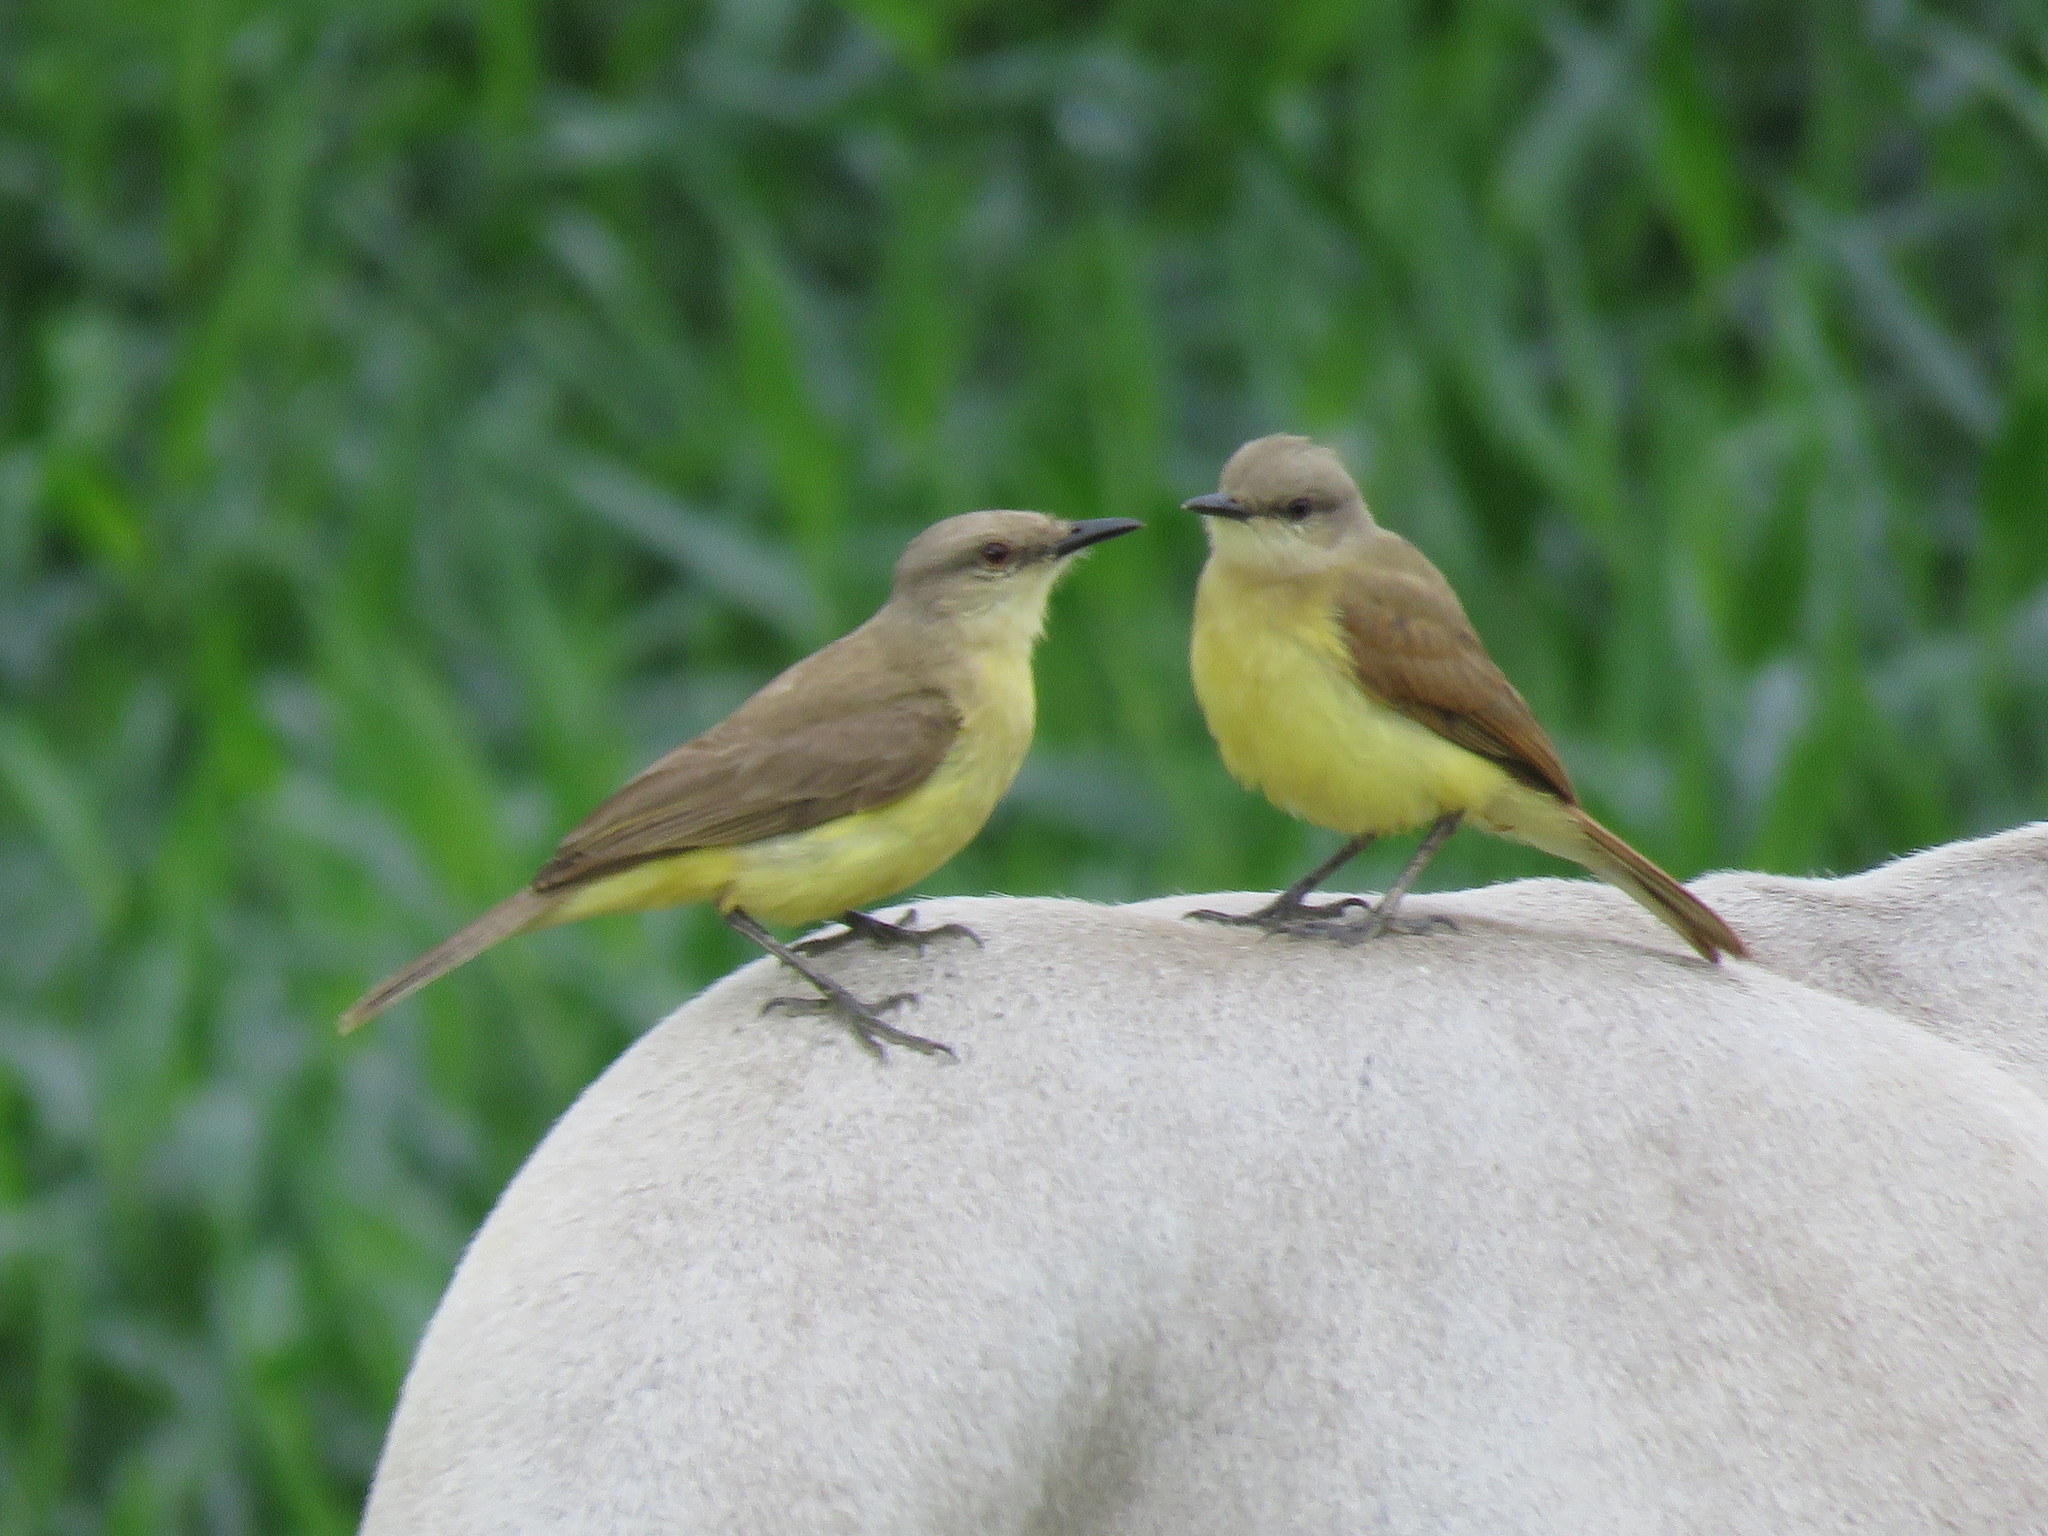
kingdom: Animalia
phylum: Chordata
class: Aves
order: Passeriformes
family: Tyrannidae
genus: Machetornis
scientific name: Machetornis rixosa
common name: Cattle tyrant
